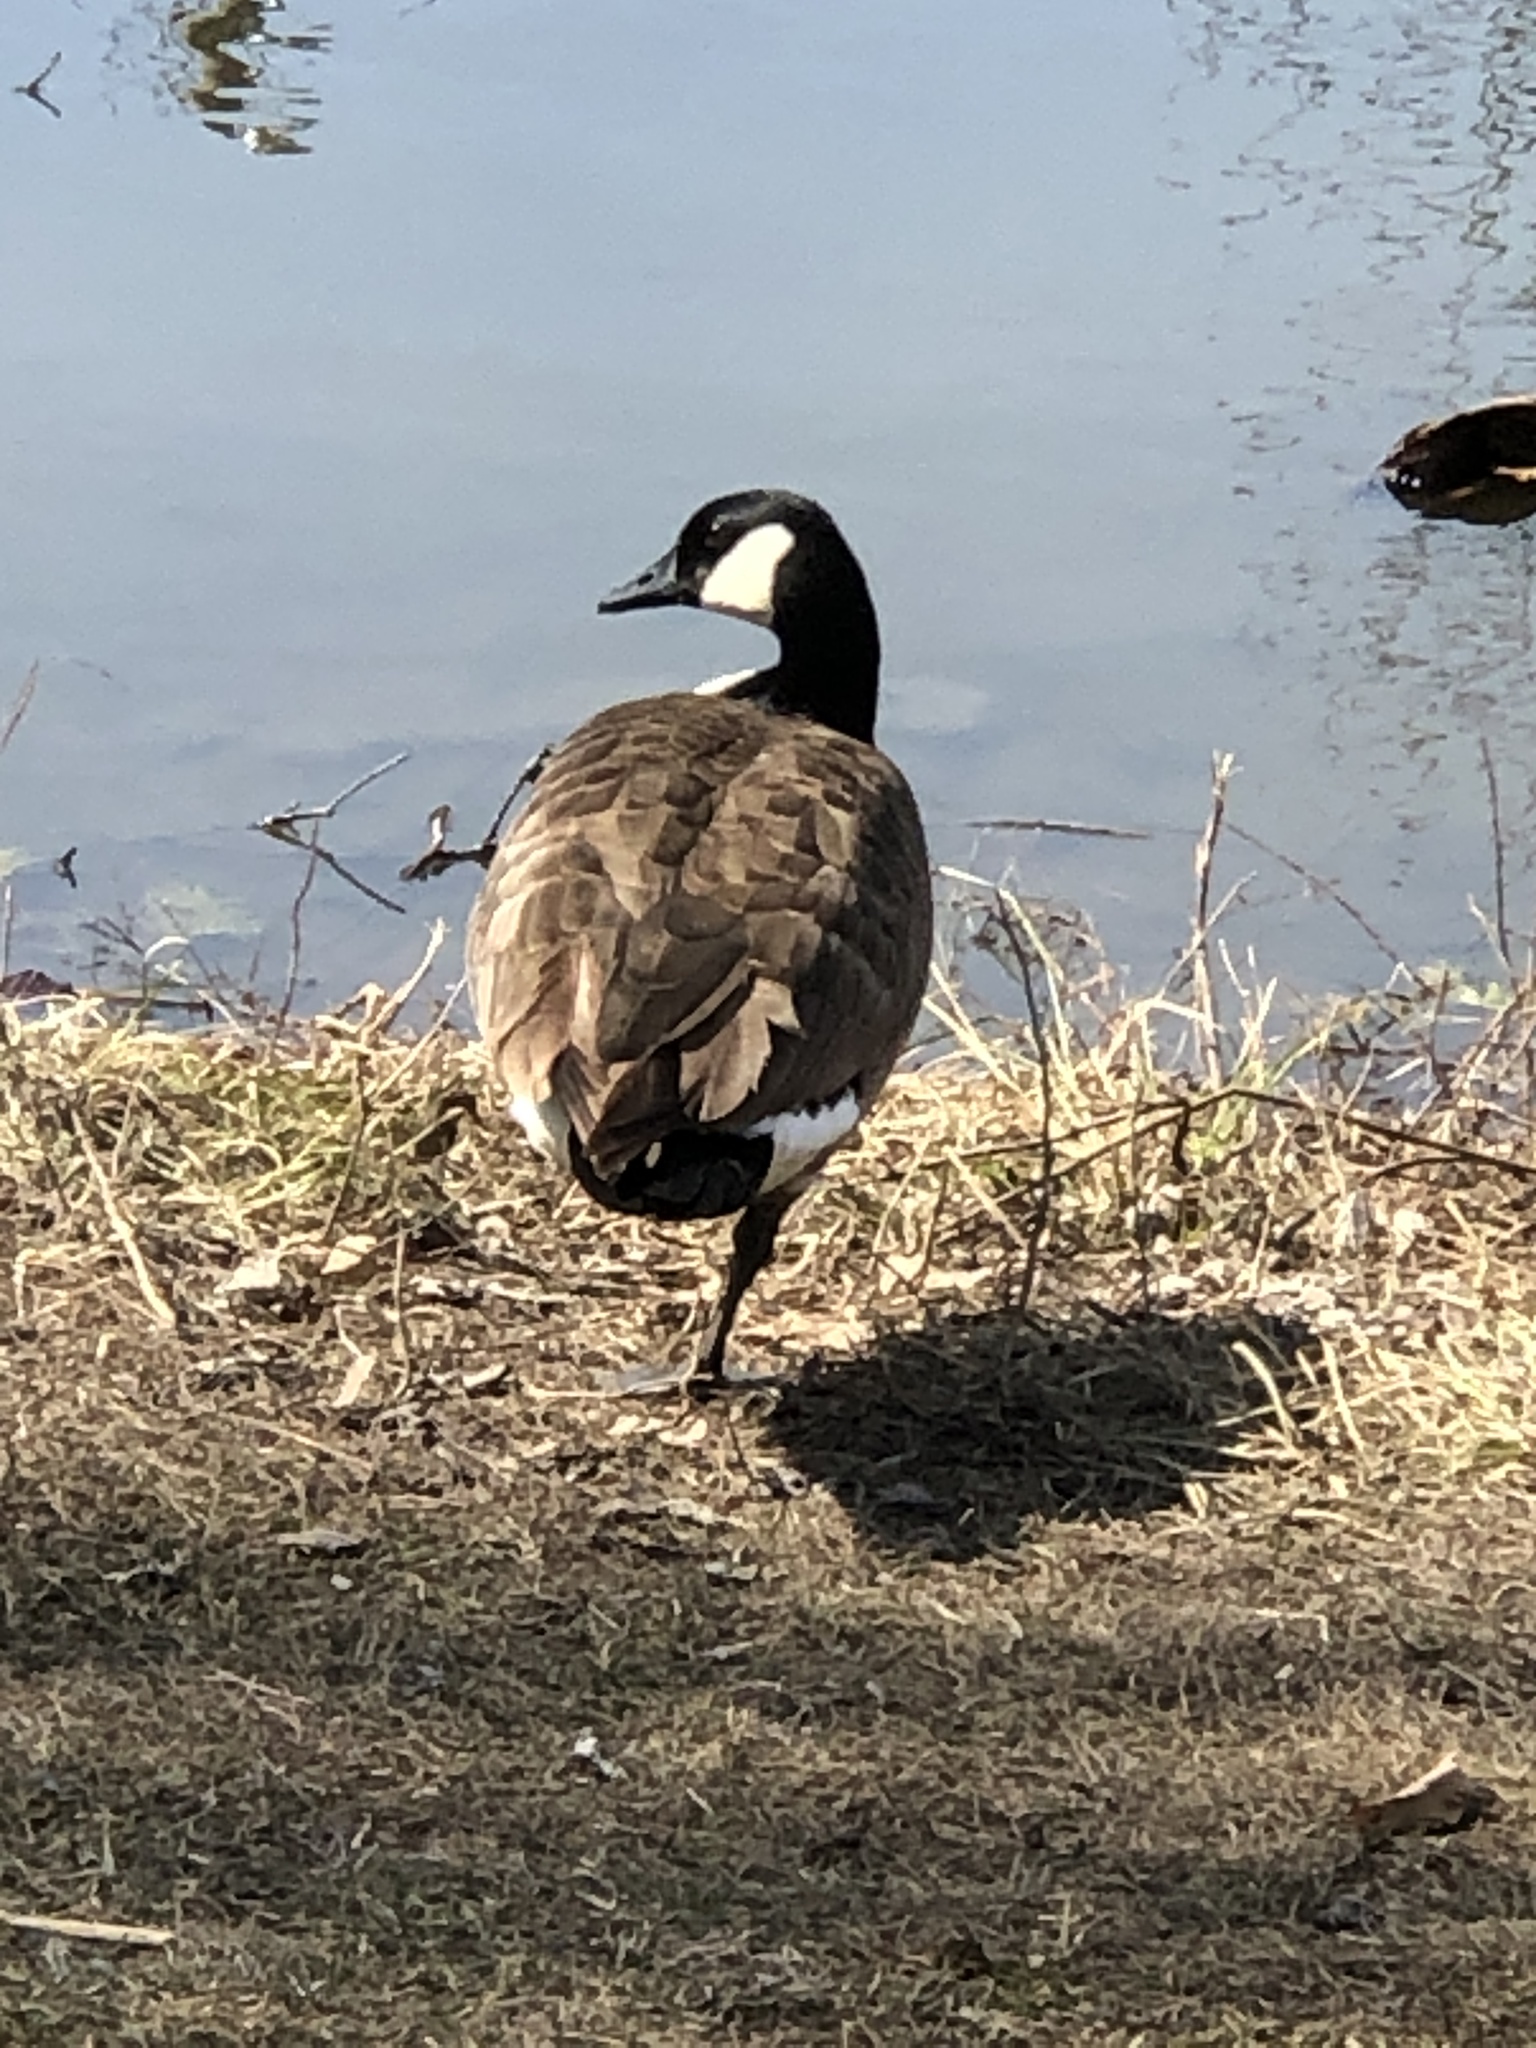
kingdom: Animalia
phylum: Chordata
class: Aves
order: Anseriformes
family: Anatidae
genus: Branta
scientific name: Branta canadensis
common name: Canada goose
